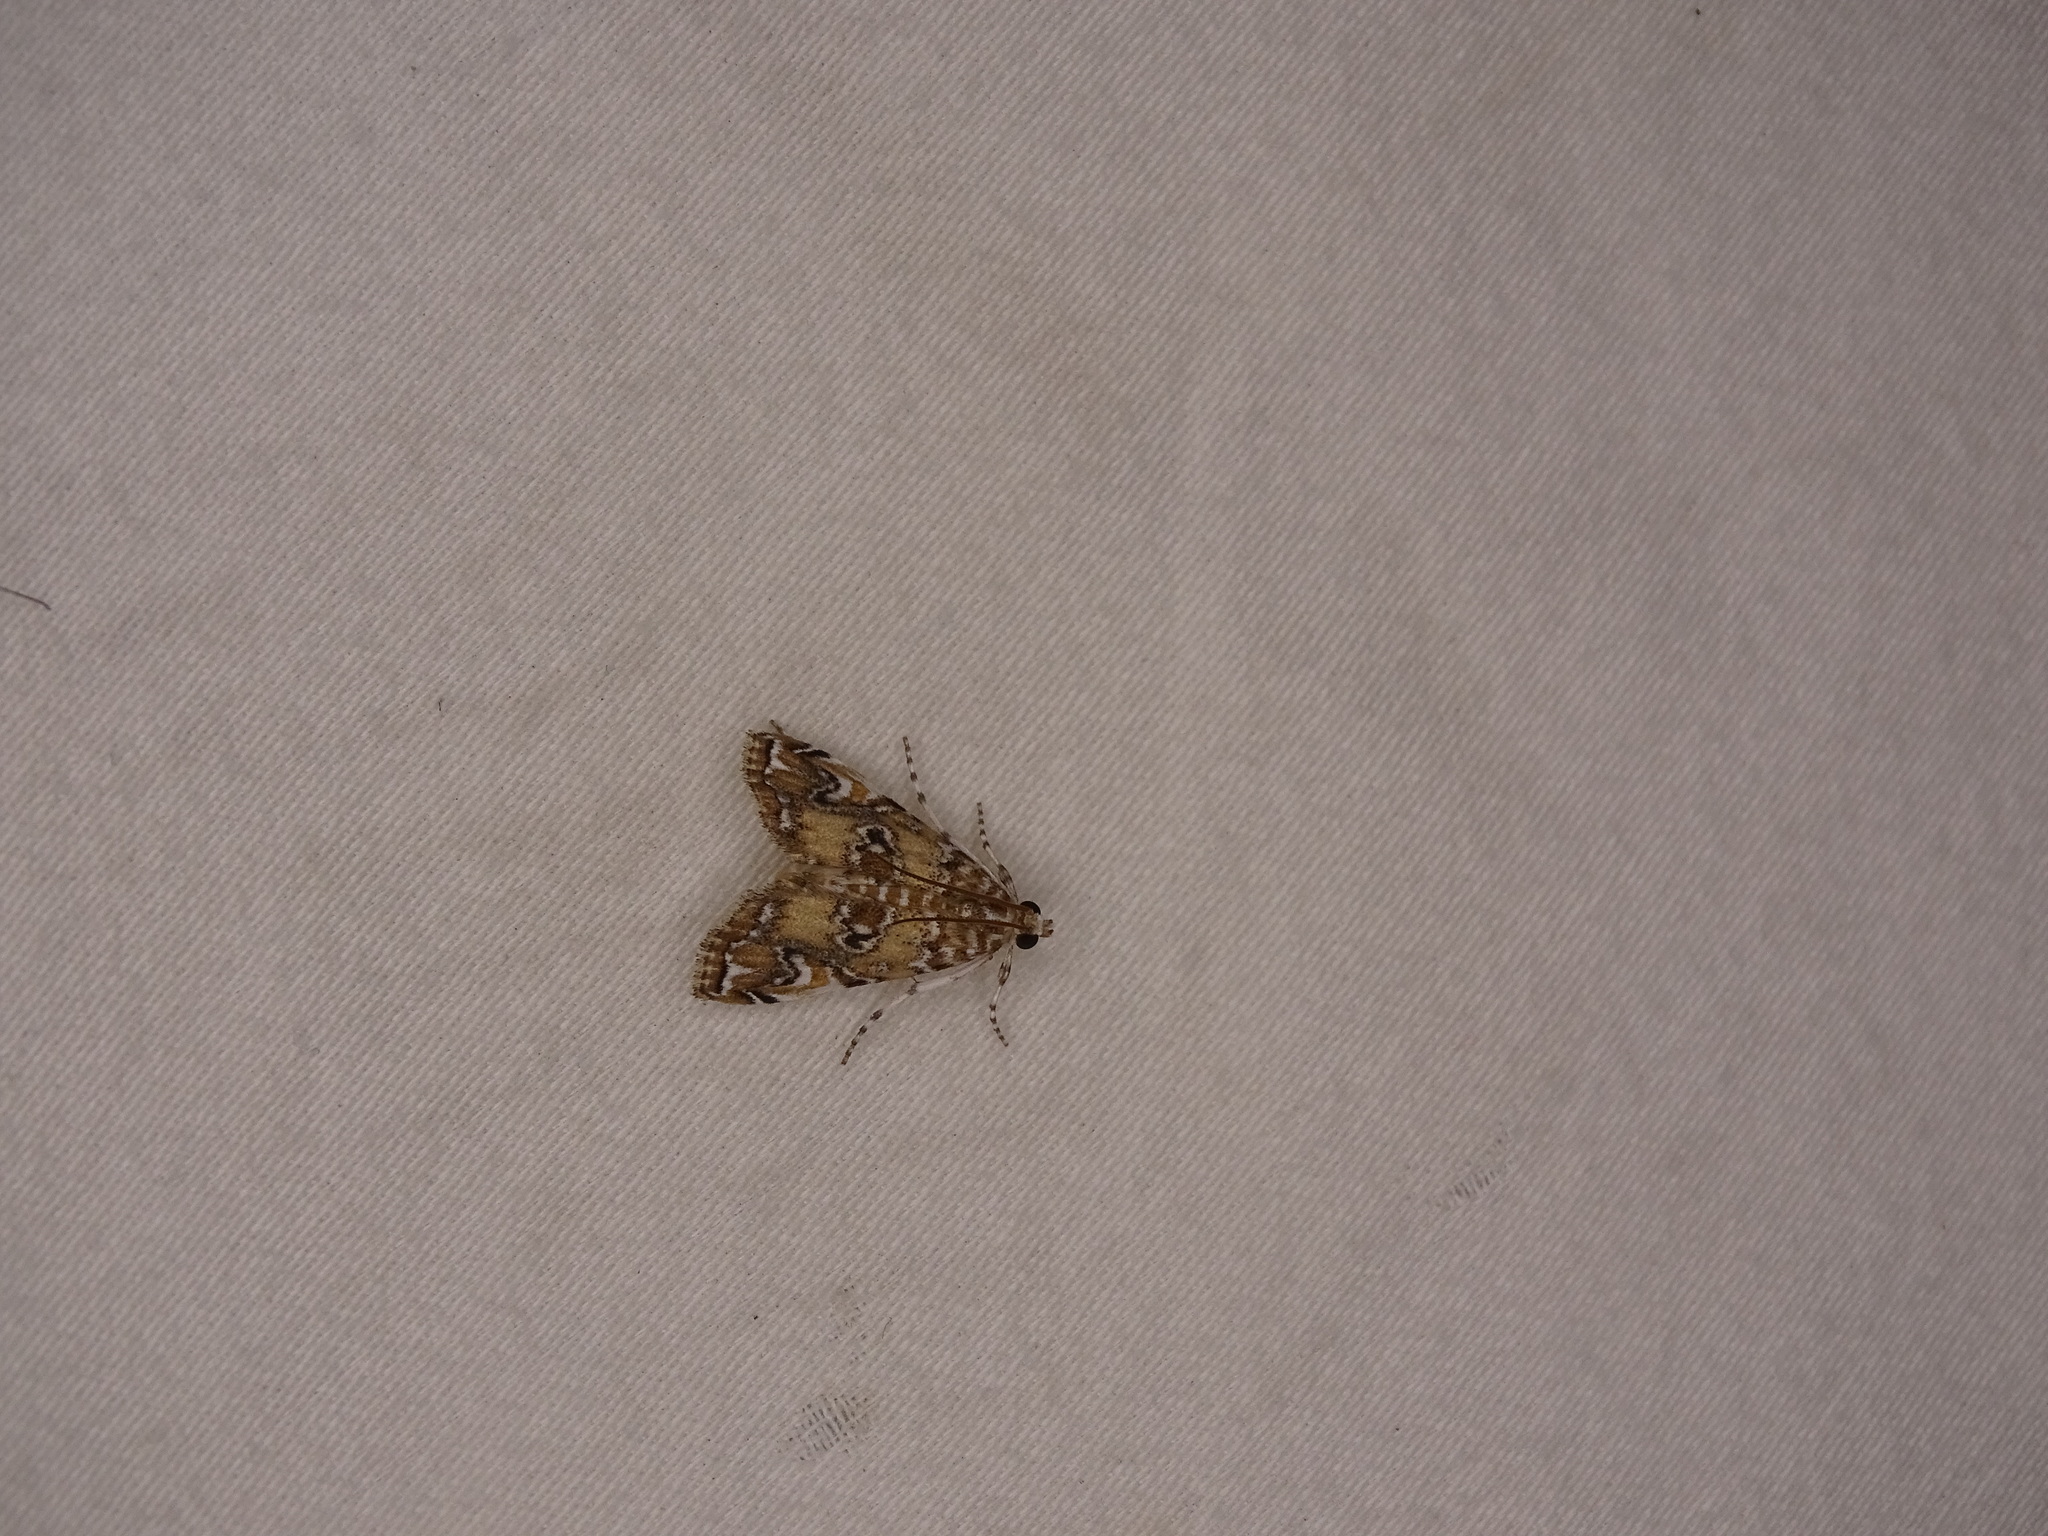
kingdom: Animalia
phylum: Arthropoda
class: Insecta
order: Lepidoptera
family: Crambidae
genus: Elophila
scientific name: Elophila gyralis
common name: Waterlily borer moth
